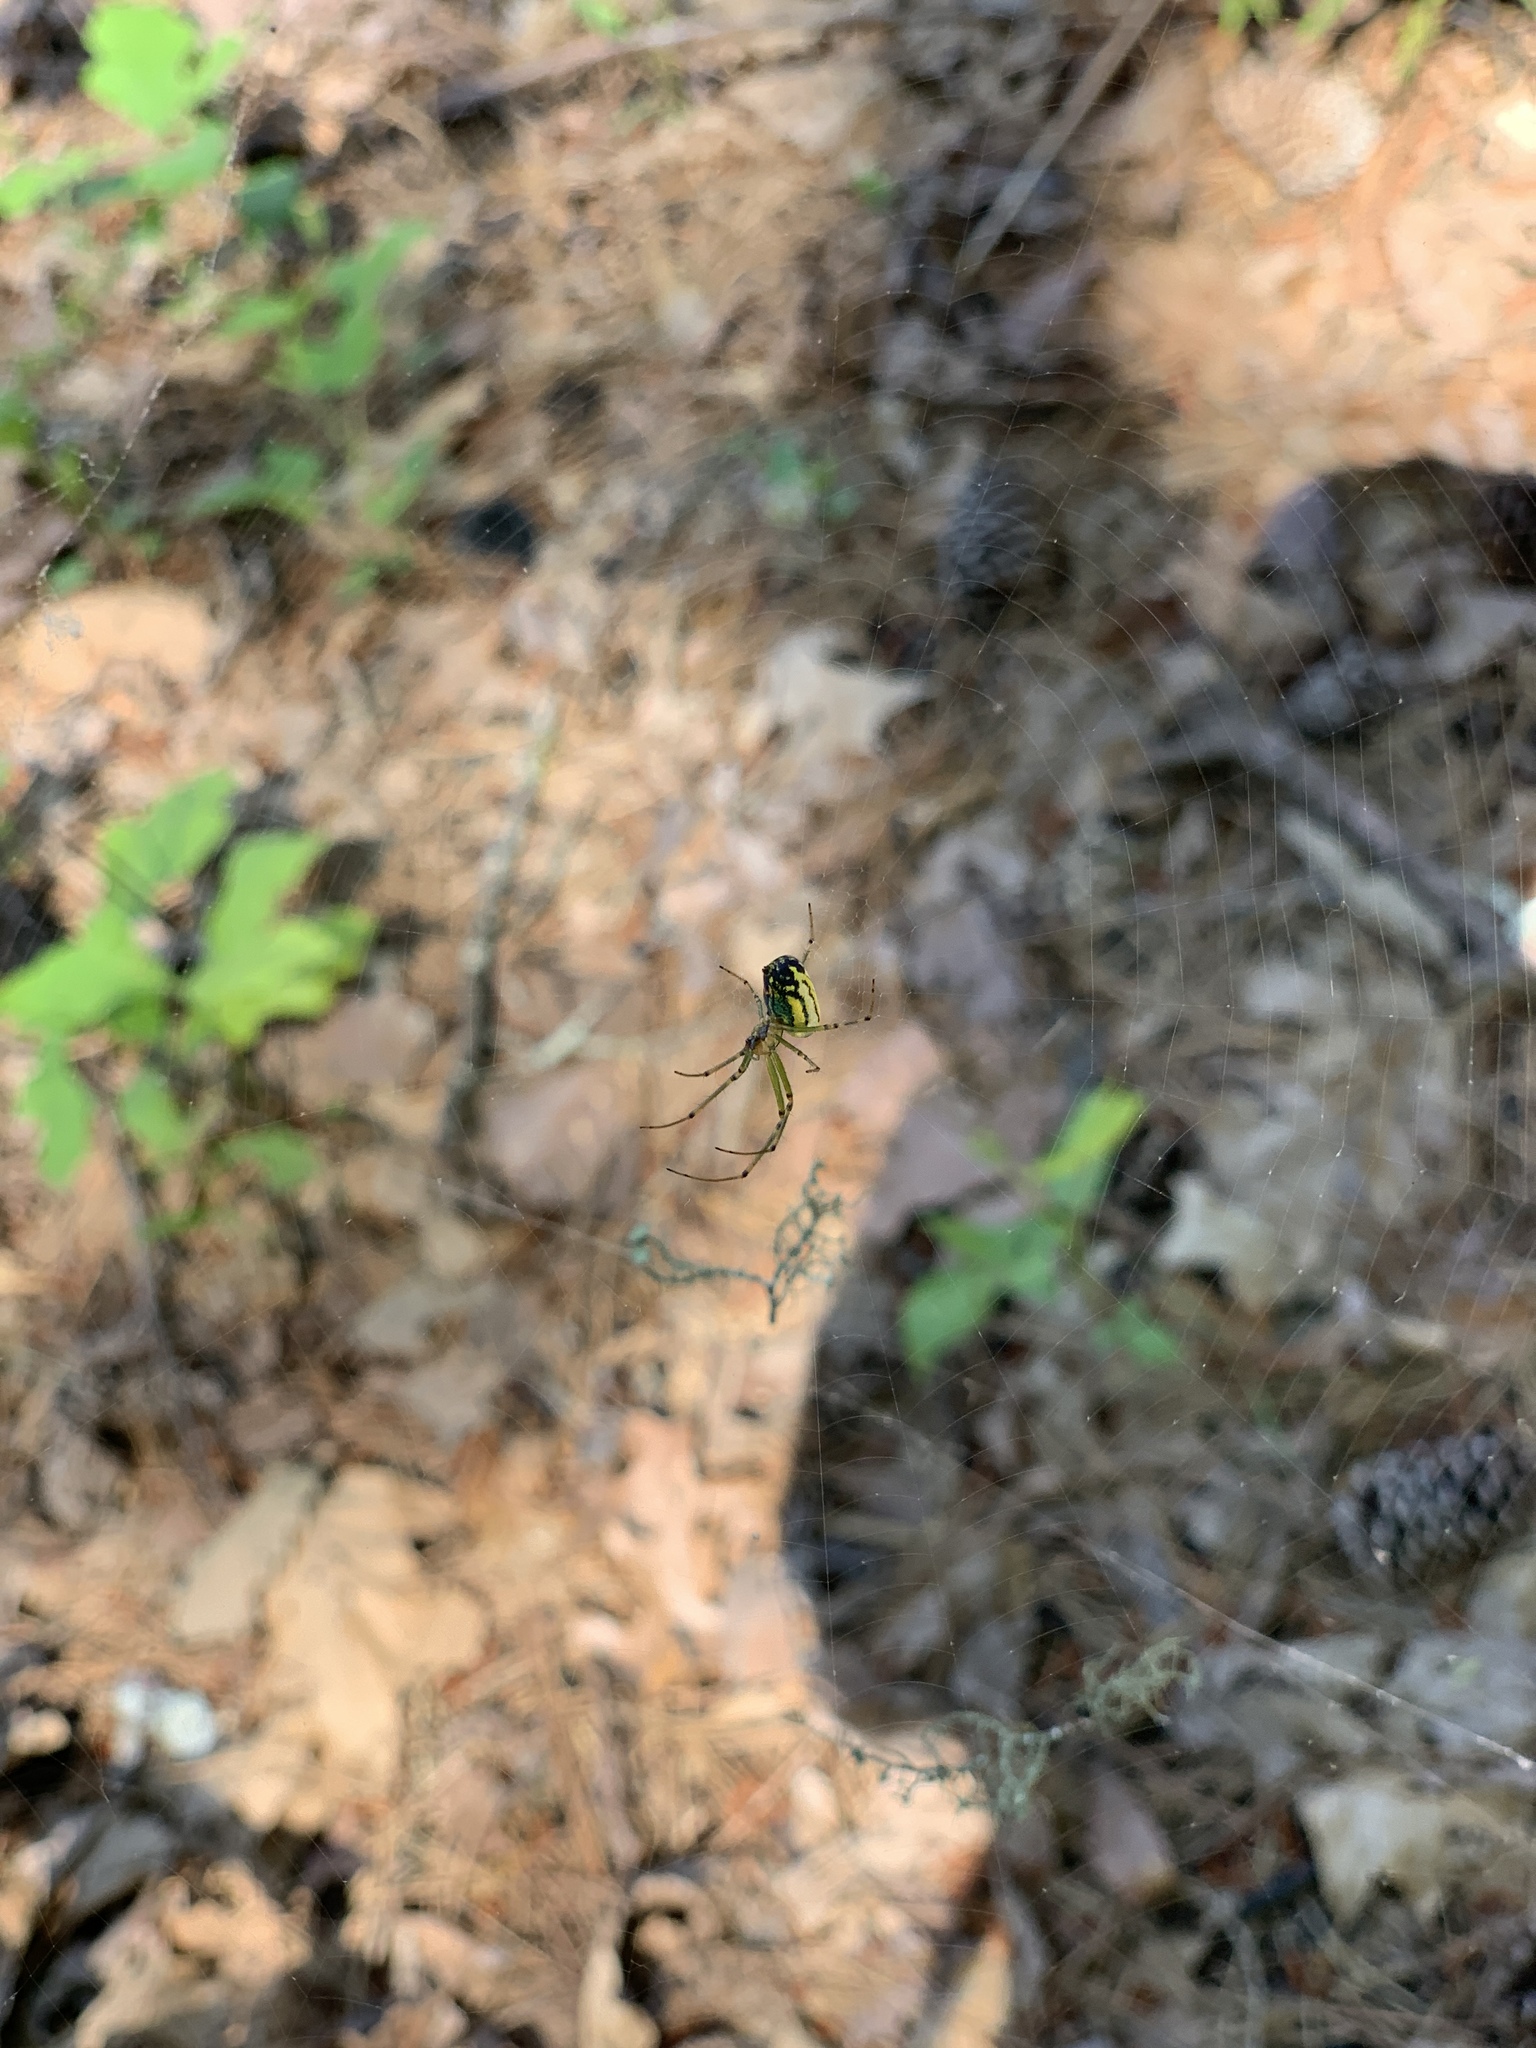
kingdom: Animalia
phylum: Arthropoda
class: Arachnida
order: Araneae
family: Tetragnathidae
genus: Leucauge
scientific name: Leucauge venusta
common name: Longjawed orb weavers
